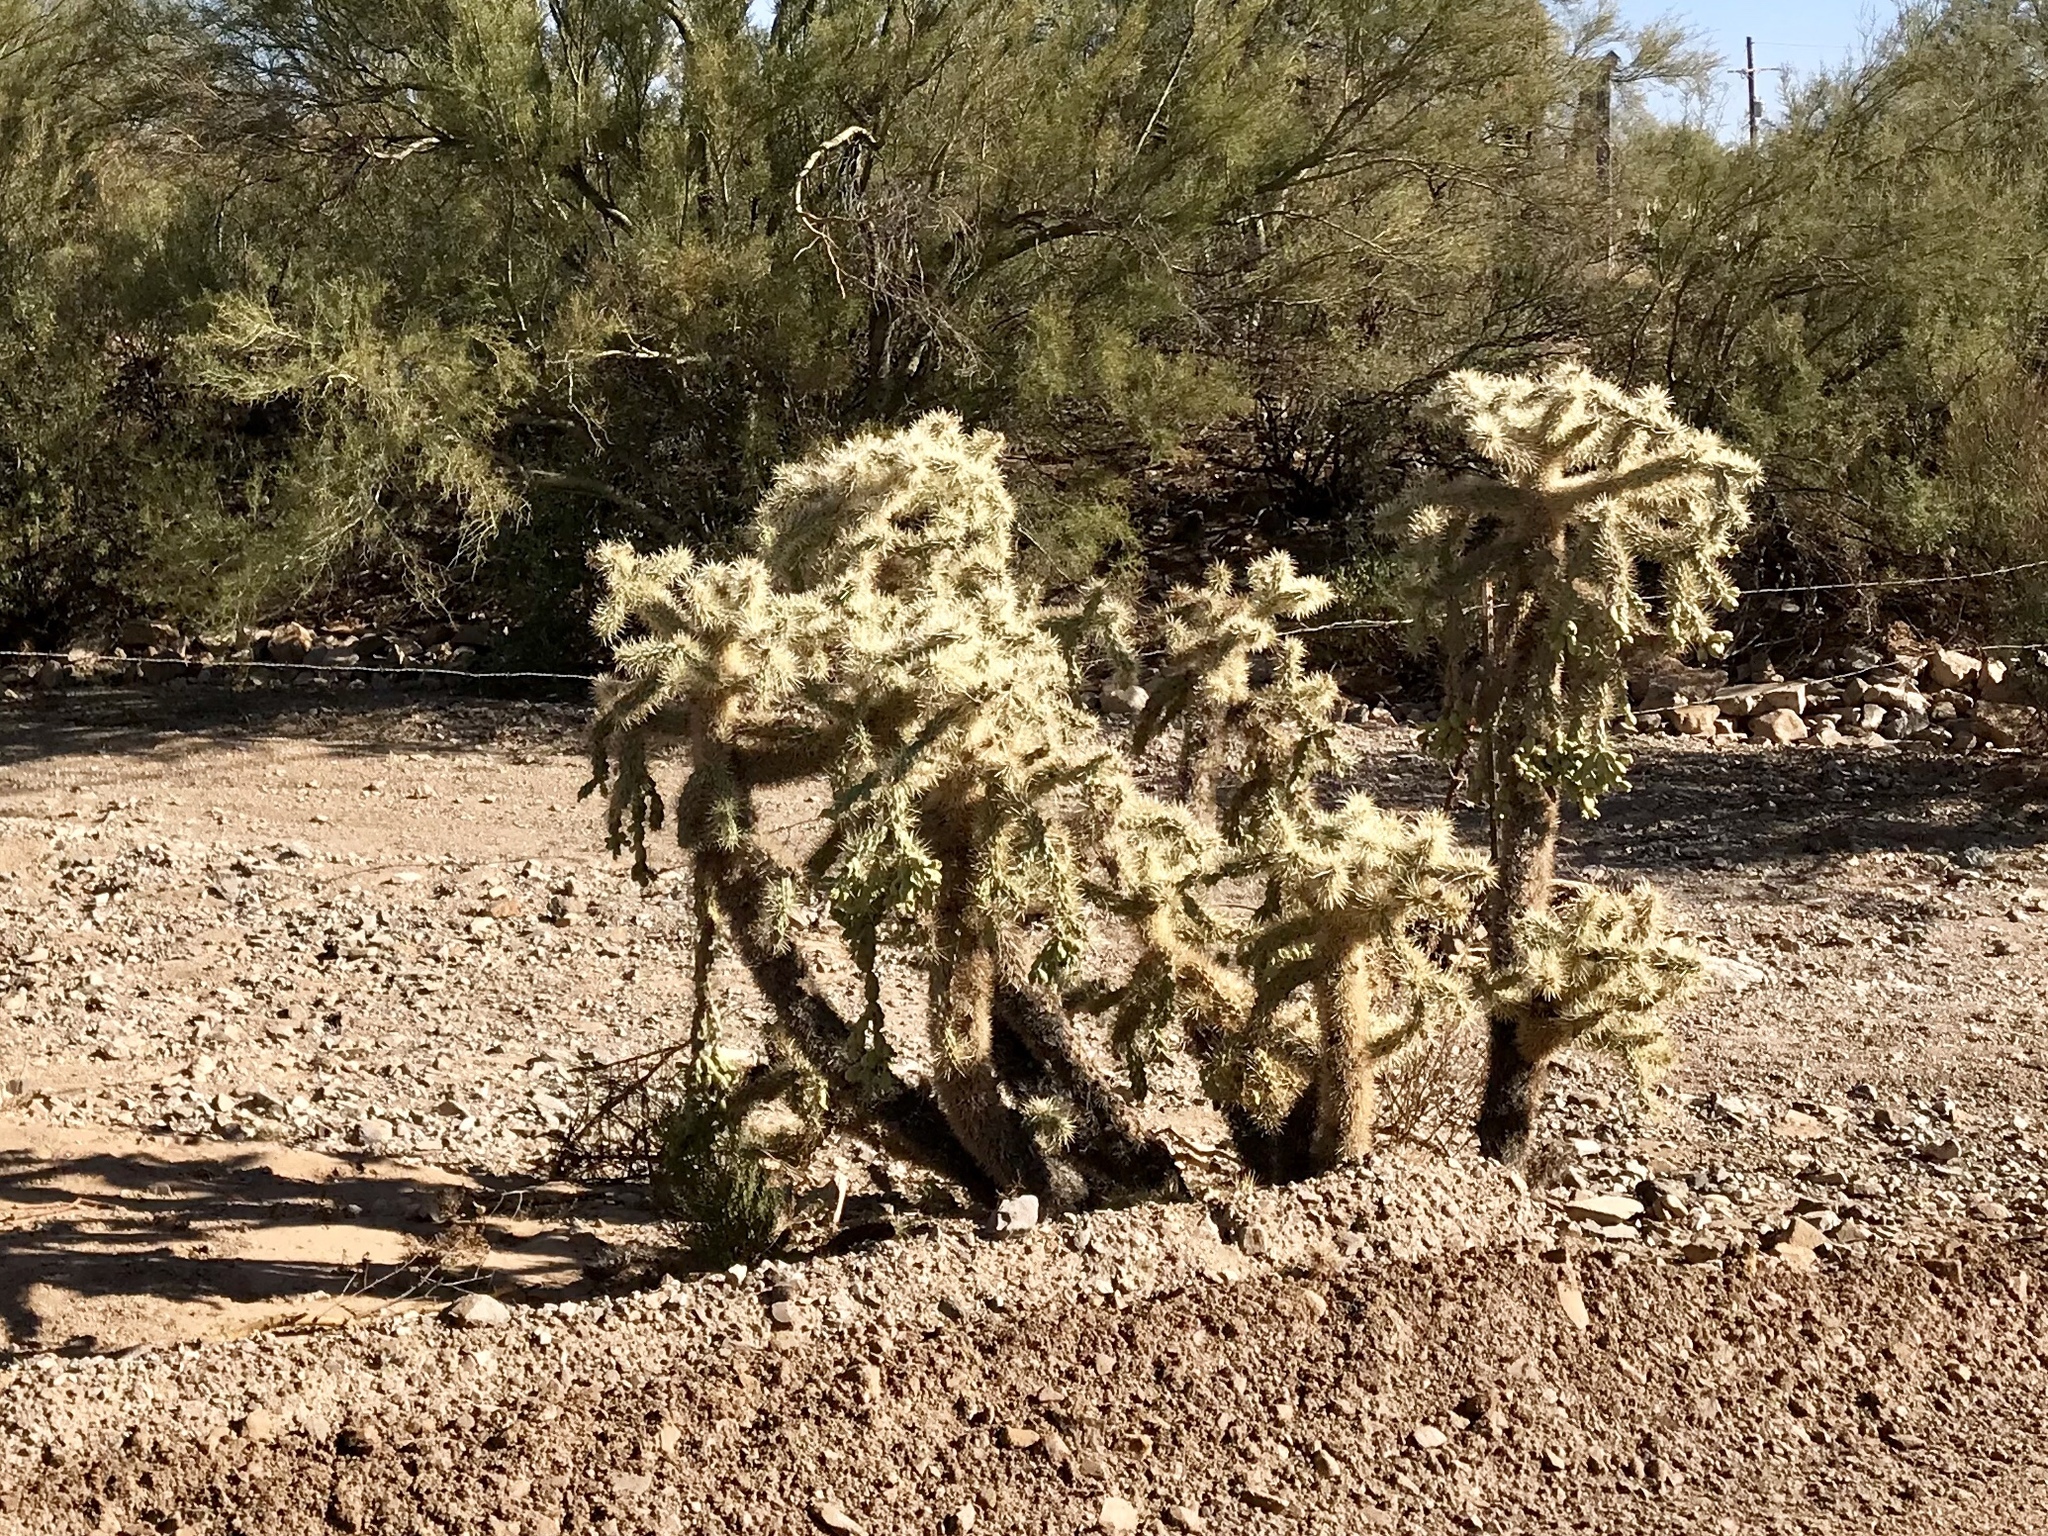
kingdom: Plantae
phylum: Tracheophyta
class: Magnoliopsida
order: Caryophyllales
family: Cactaceae
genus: Cylindropuntia
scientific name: Cylindropuntia fulgida
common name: Jumping cholla
